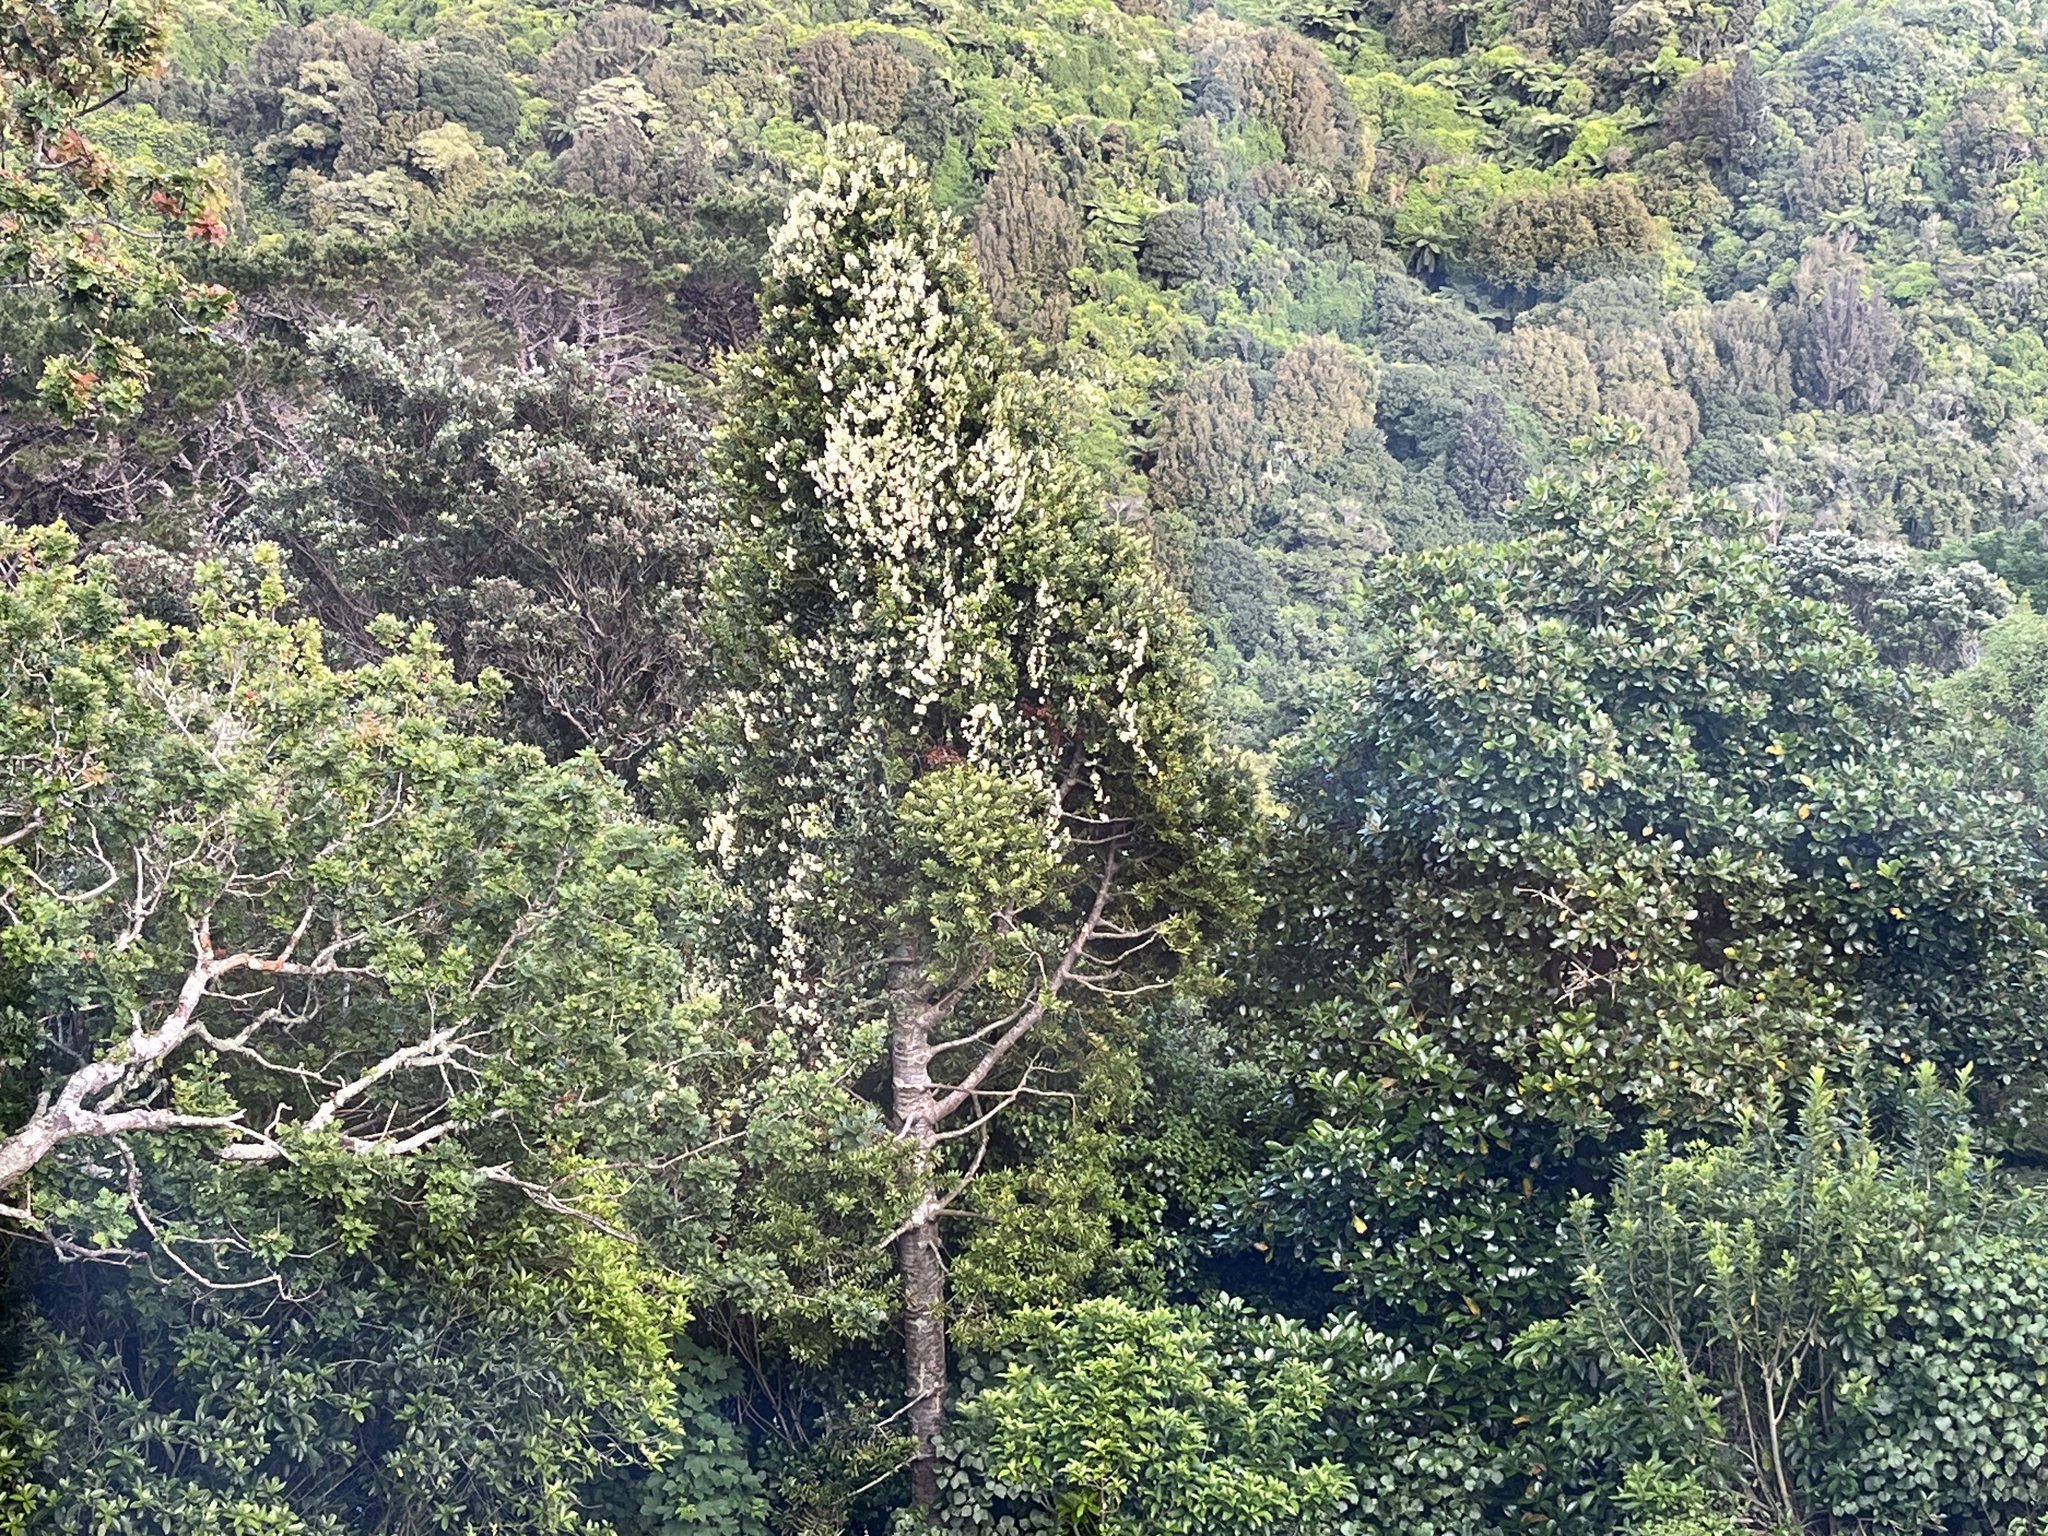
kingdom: Plantae
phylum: Tracheophyta
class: Magnoliopsida
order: Gentianales
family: Apocynaceae
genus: Parsonsia
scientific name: Parsonsia heterophylla
